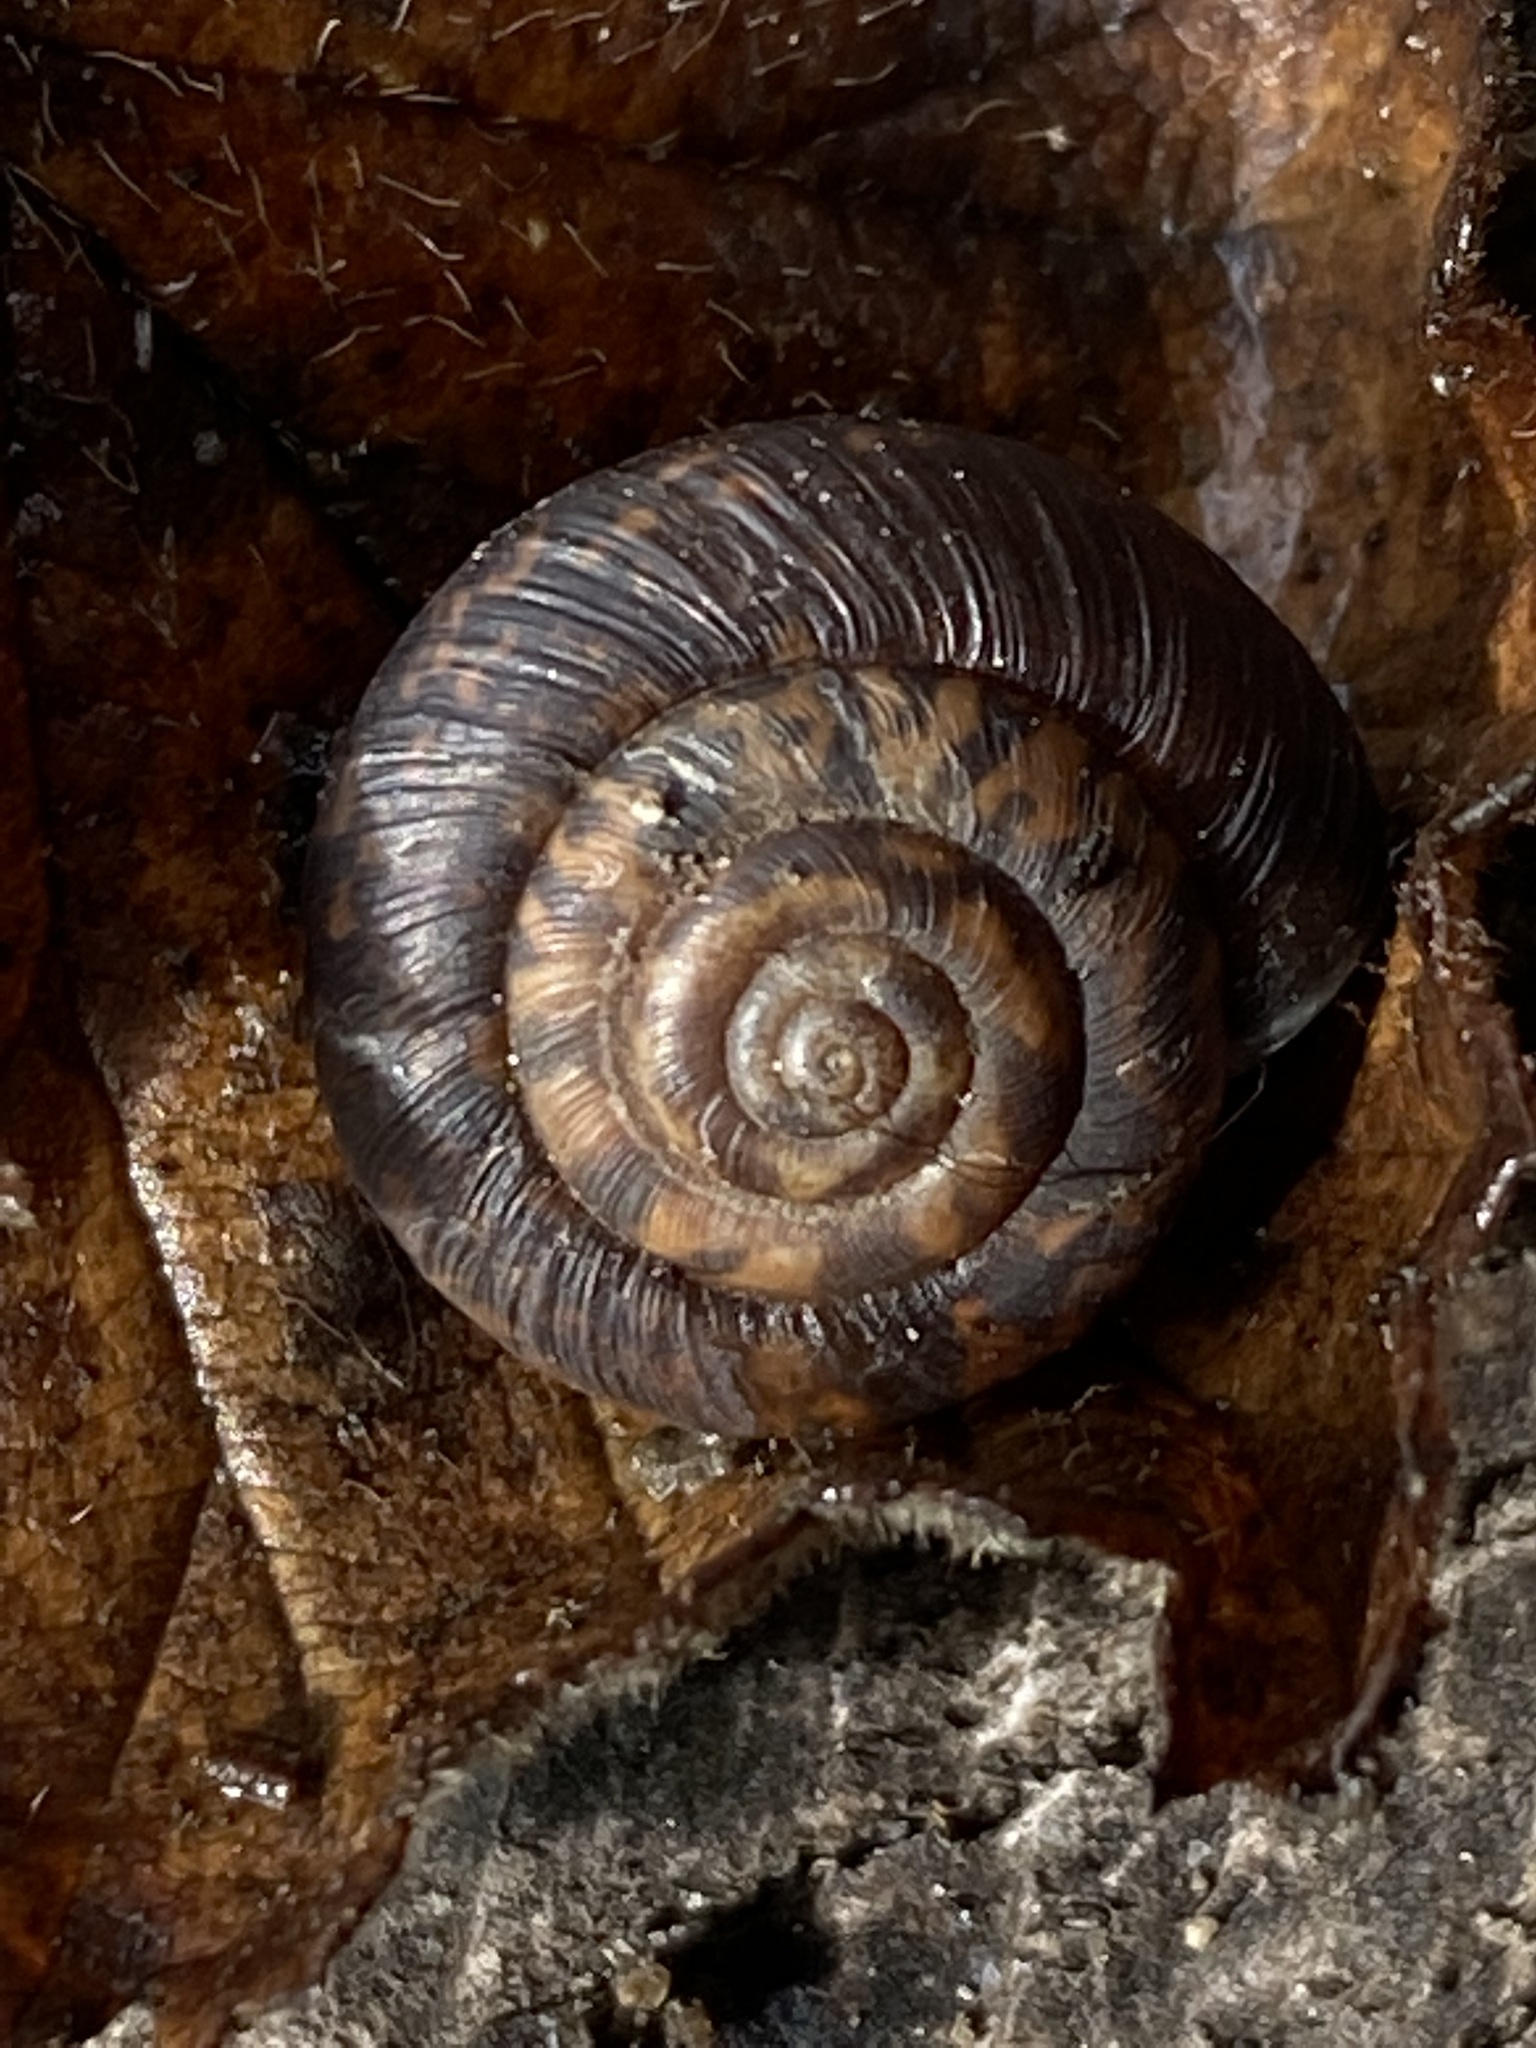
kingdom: Animalia
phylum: Mollusca
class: Gastropoda
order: Stylommatophora
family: Hygromiidae
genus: Trochulus
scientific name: Trochulus striolatus
